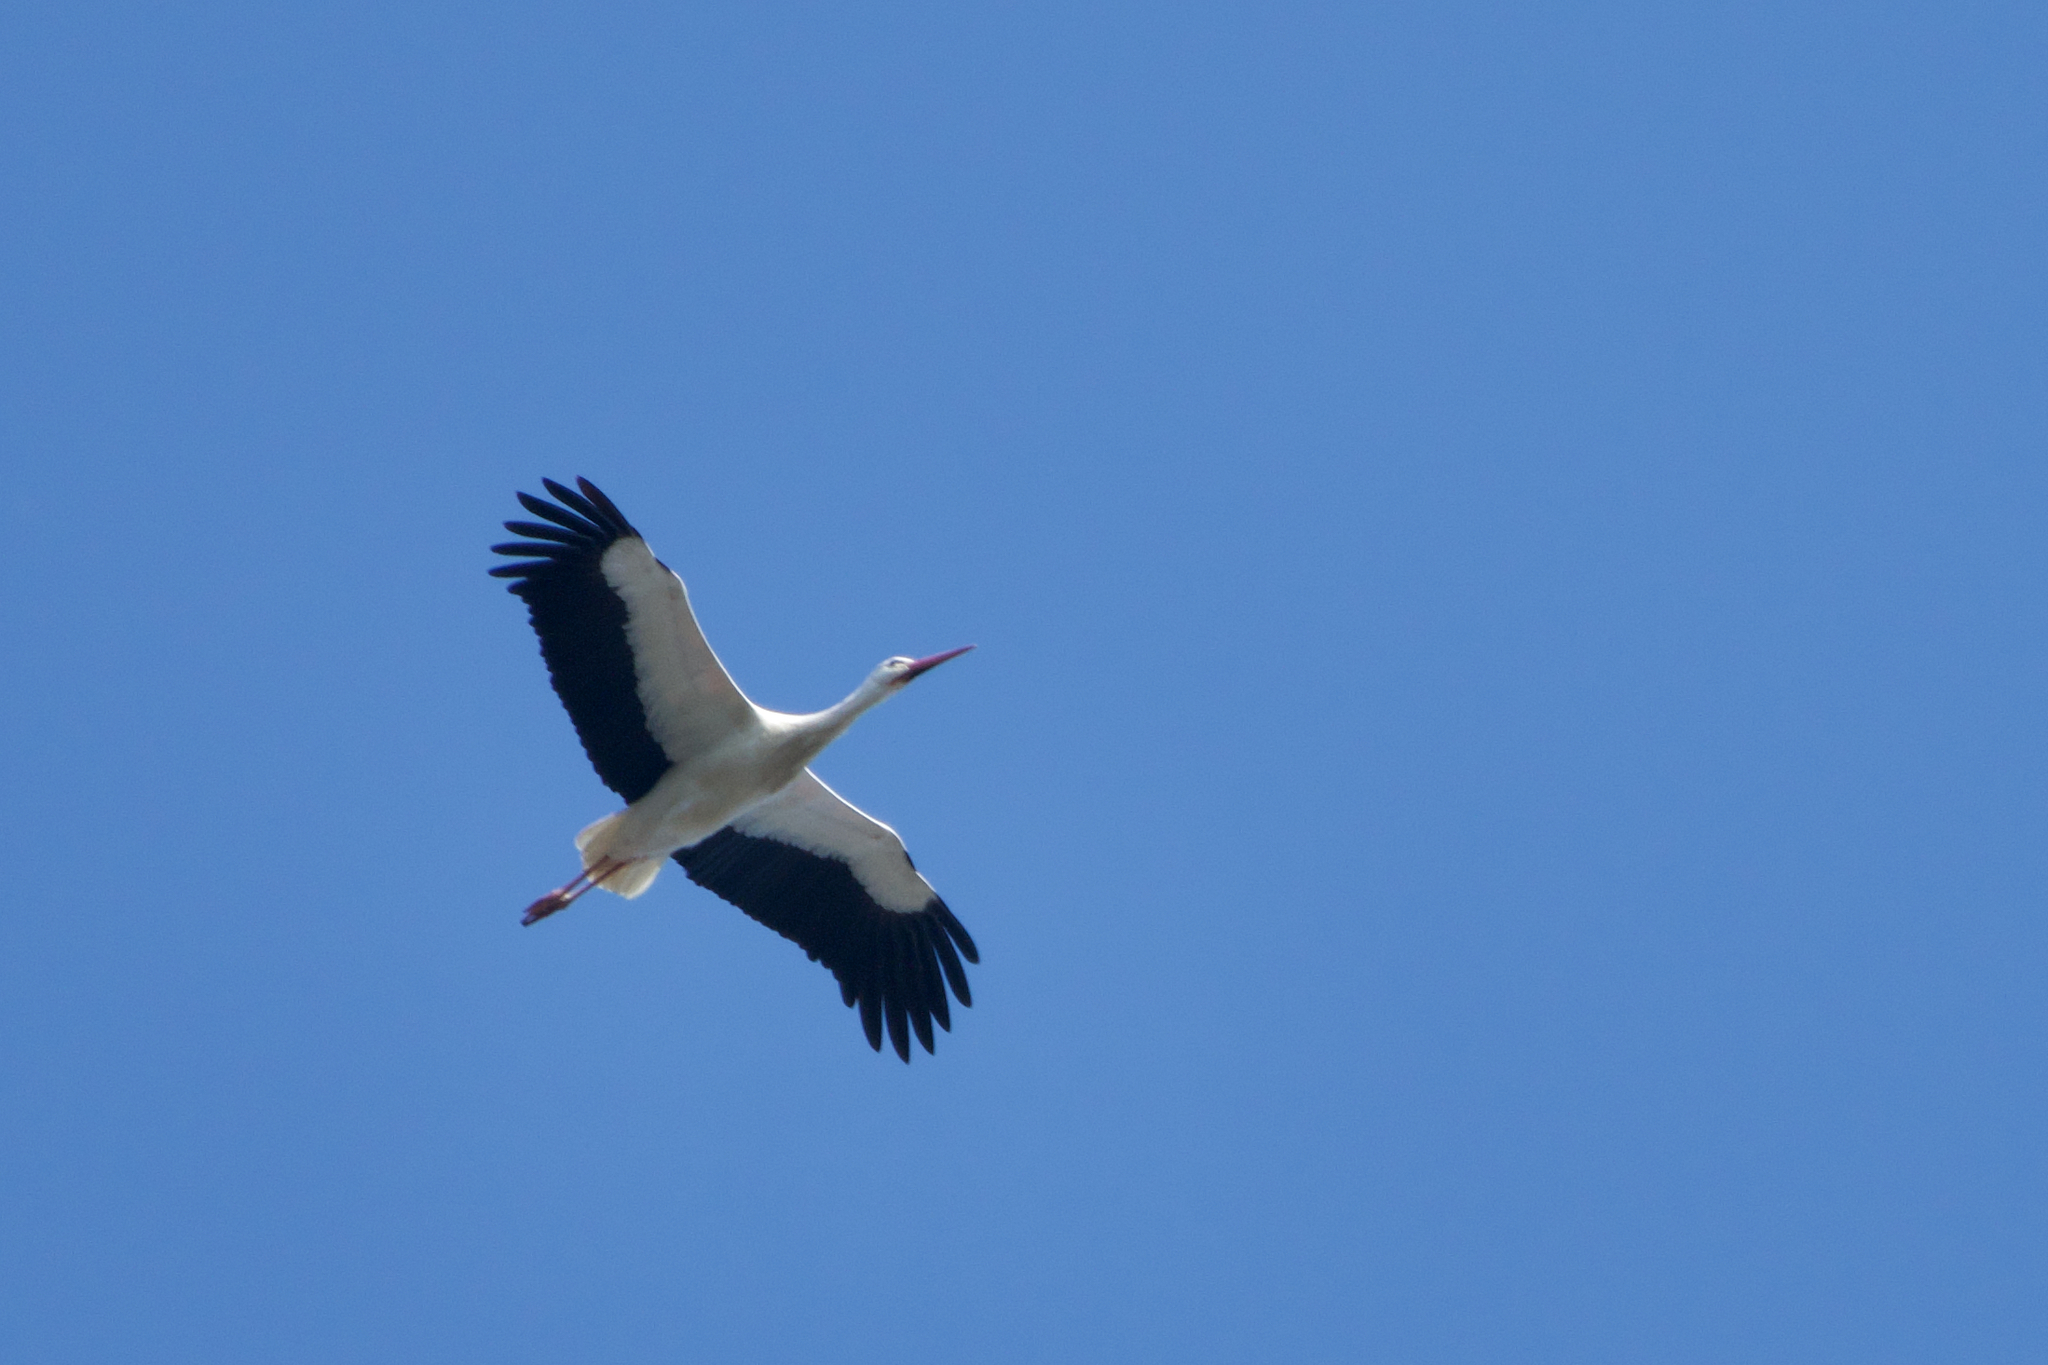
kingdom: Animalia
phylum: Chordata
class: Aves
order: Ciconiiformes
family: Ciconiidae
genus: Ciconia
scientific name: Ciconia ciconia
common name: White stork
